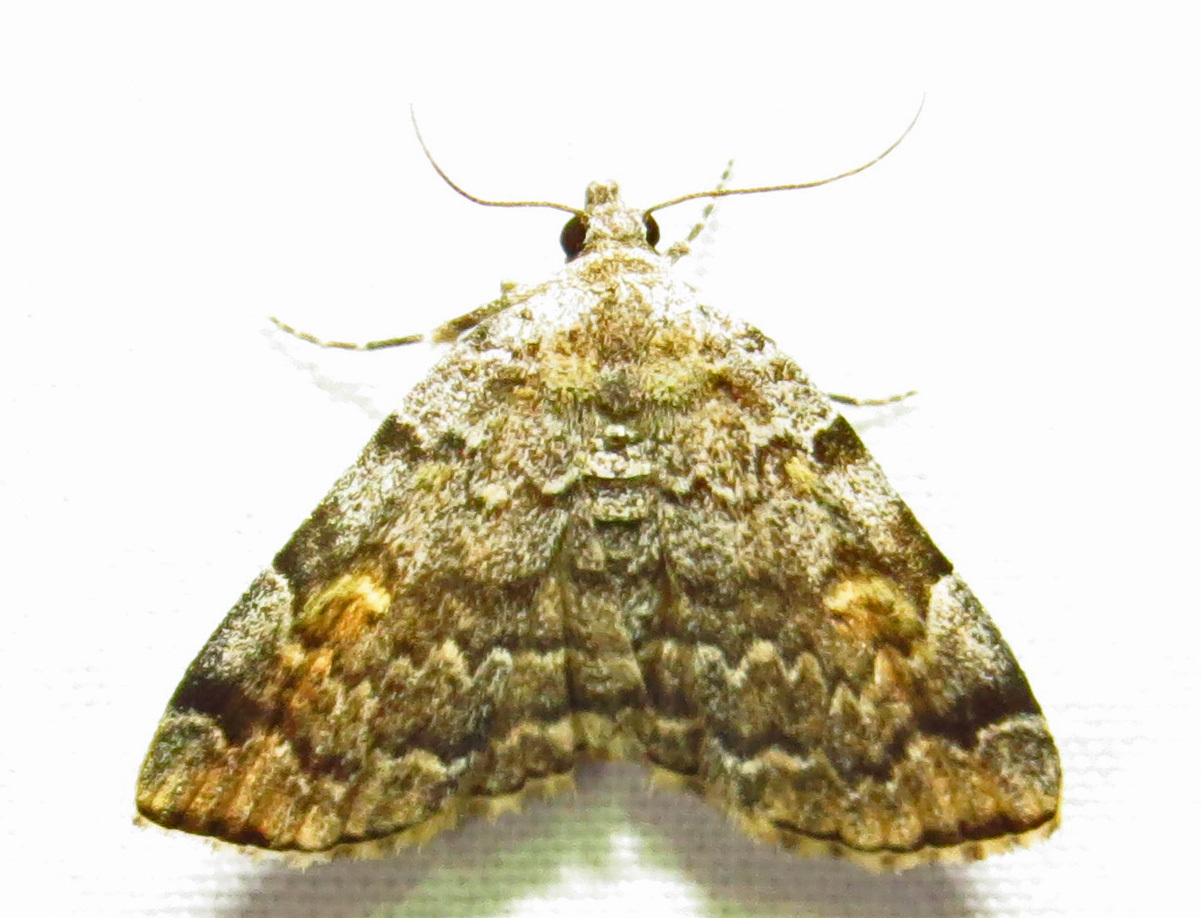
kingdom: Animalia
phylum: Arthropoda
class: Insecta
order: Lepidoptera
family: Erebidae
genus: Idia
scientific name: Idia americalis
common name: American idia moth
